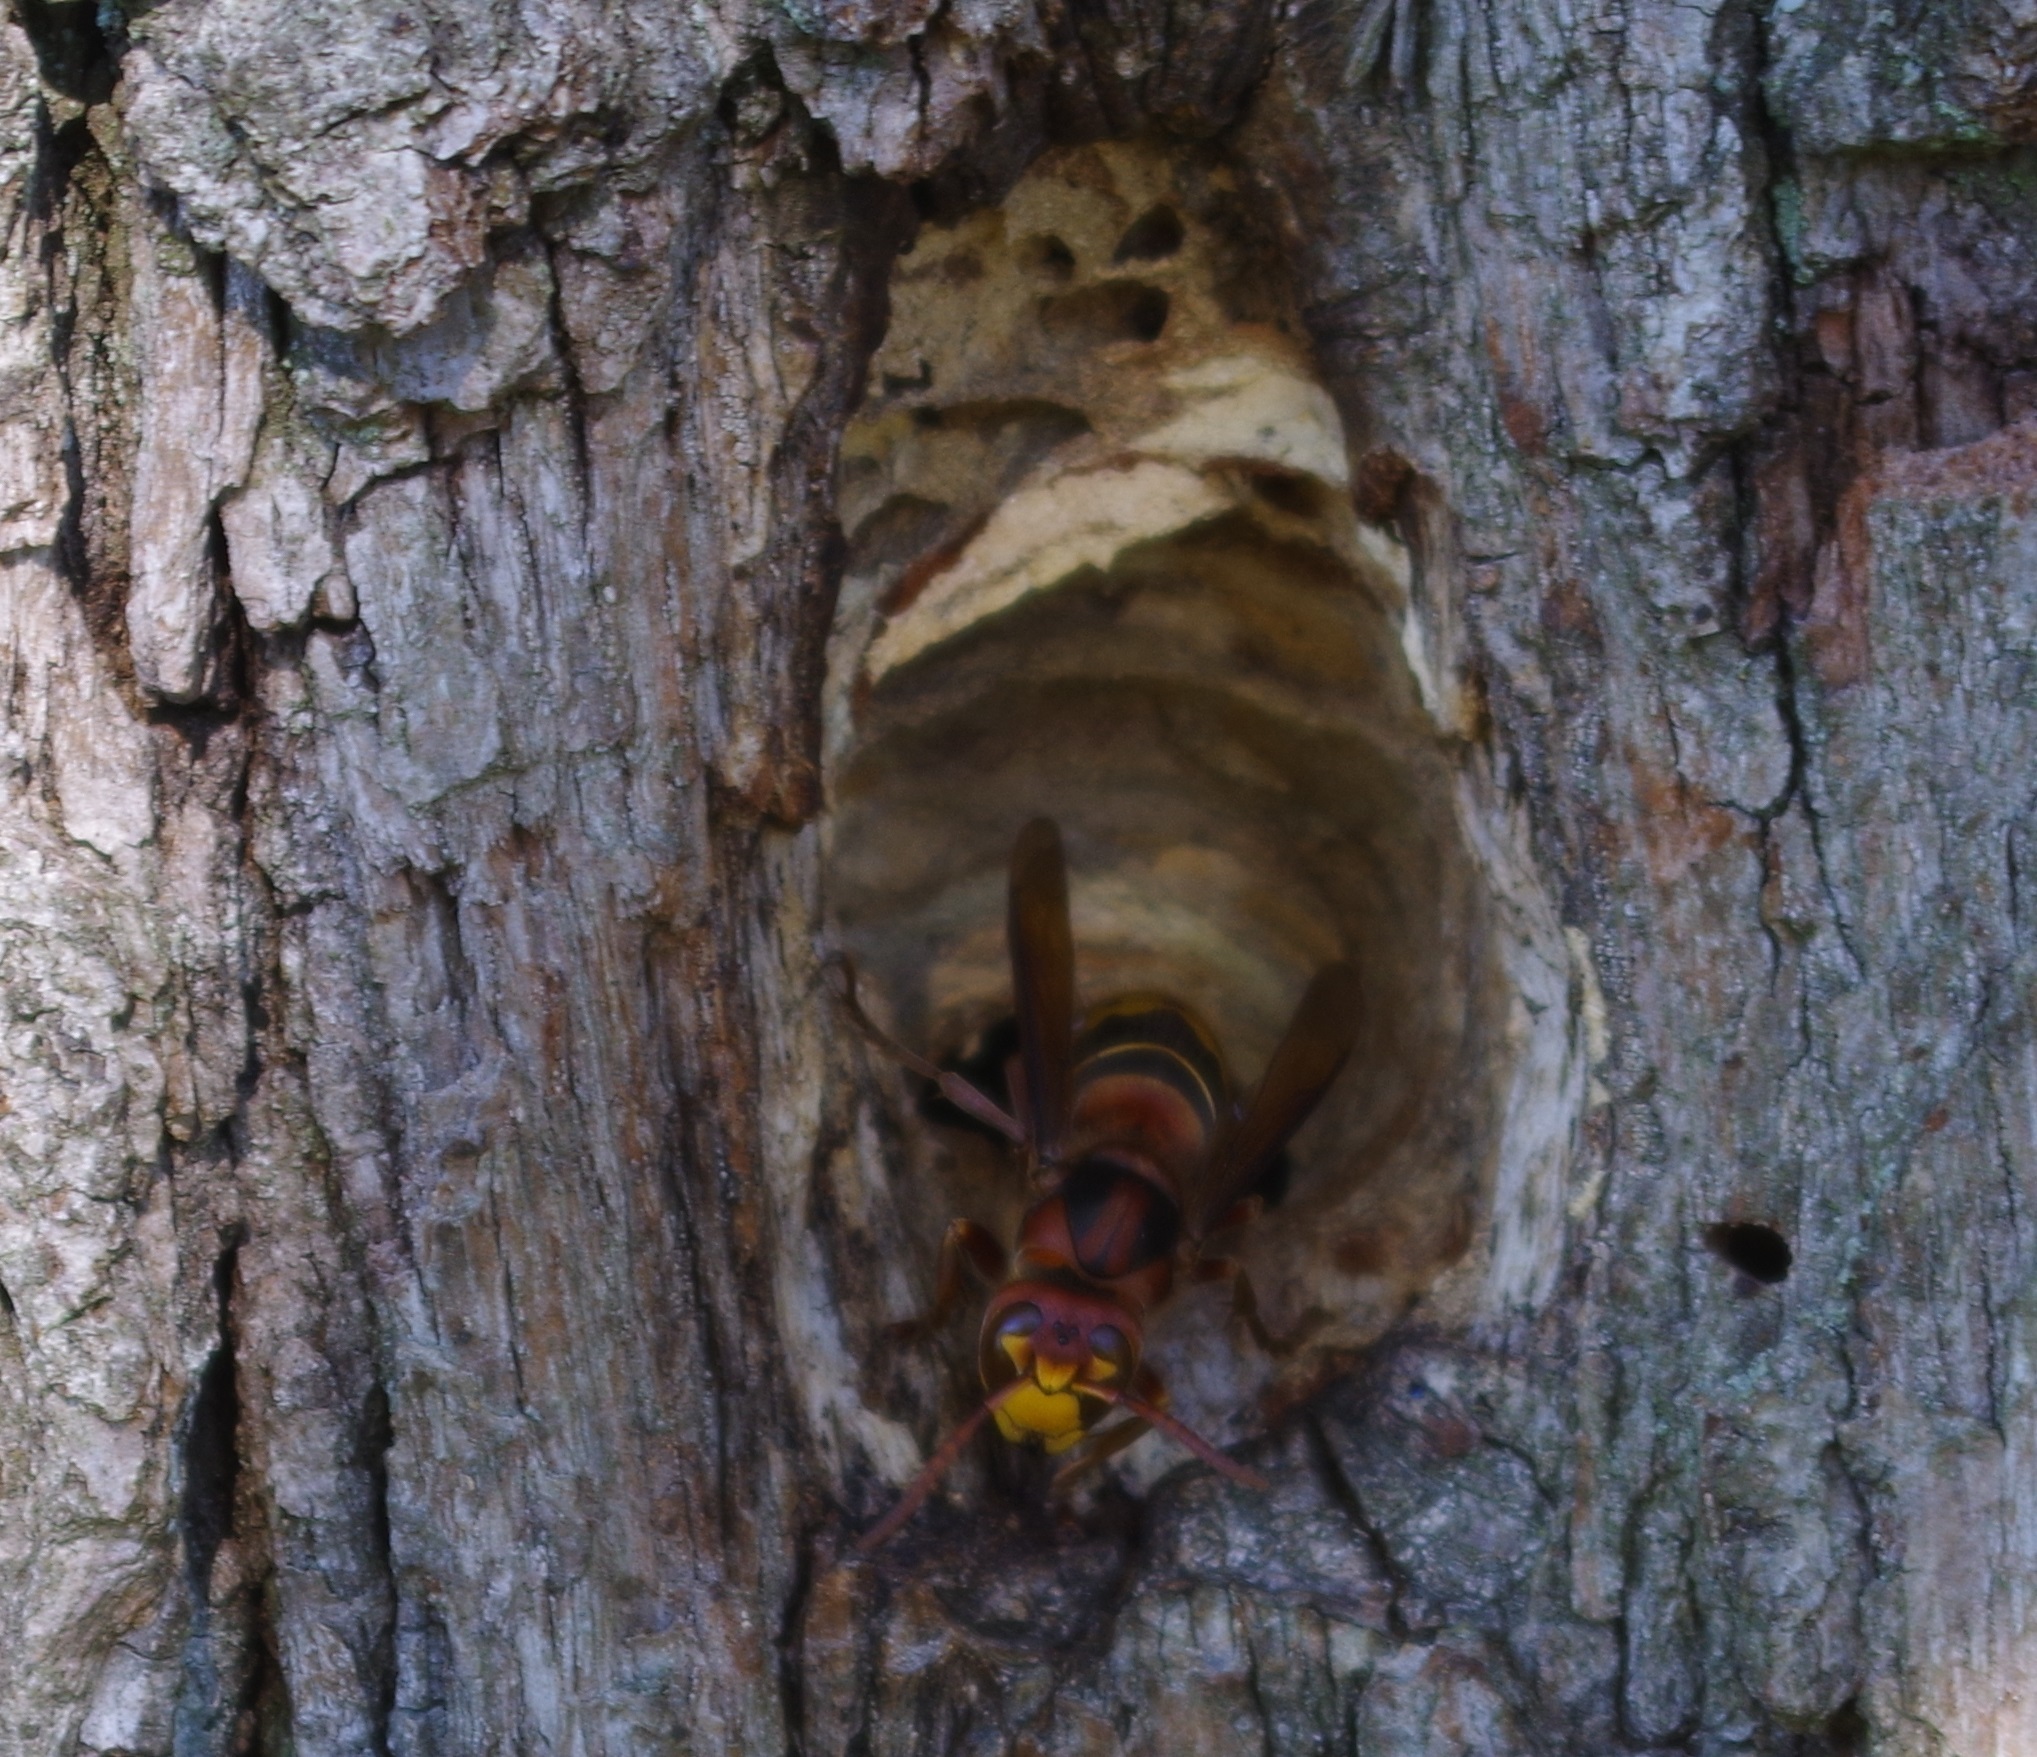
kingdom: Animalia
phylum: Arthropoda
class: Insecta
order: Hymenoptera
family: Vespidae
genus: Vespa
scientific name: Vespa crabro
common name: Hornet
